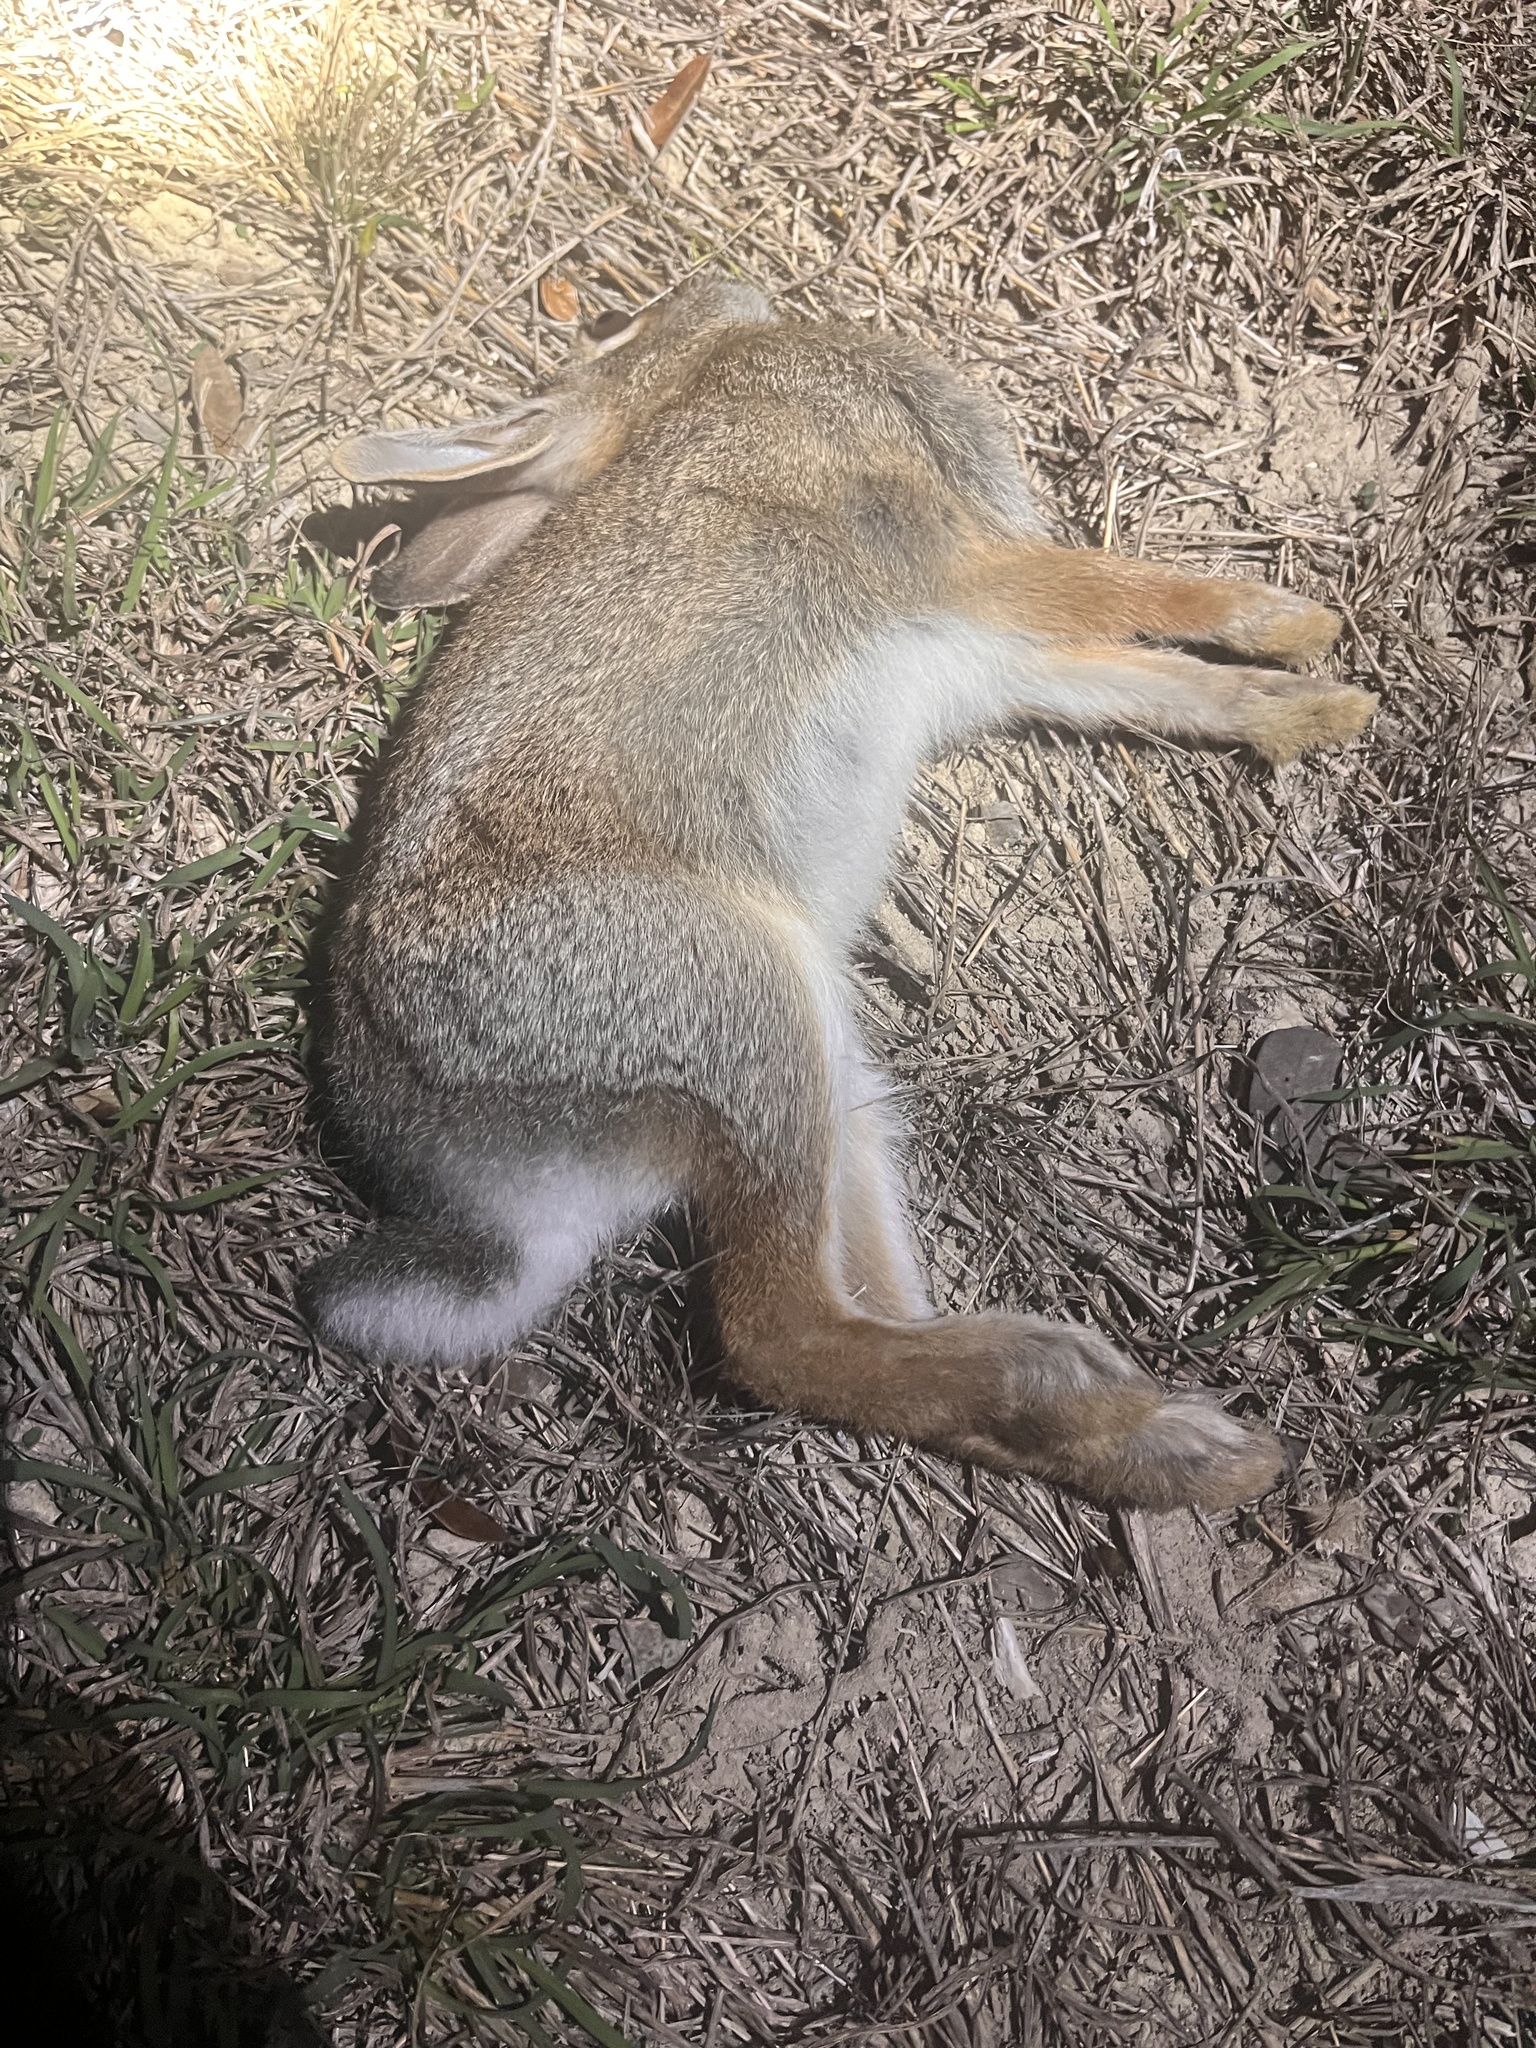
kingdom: Animalia
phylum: Chordata
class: Mammalia
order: Lagomorpha
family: Leporidae
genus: Sylvilagus
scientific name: Sylvilagus floridanus
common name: Eastern cottontail
